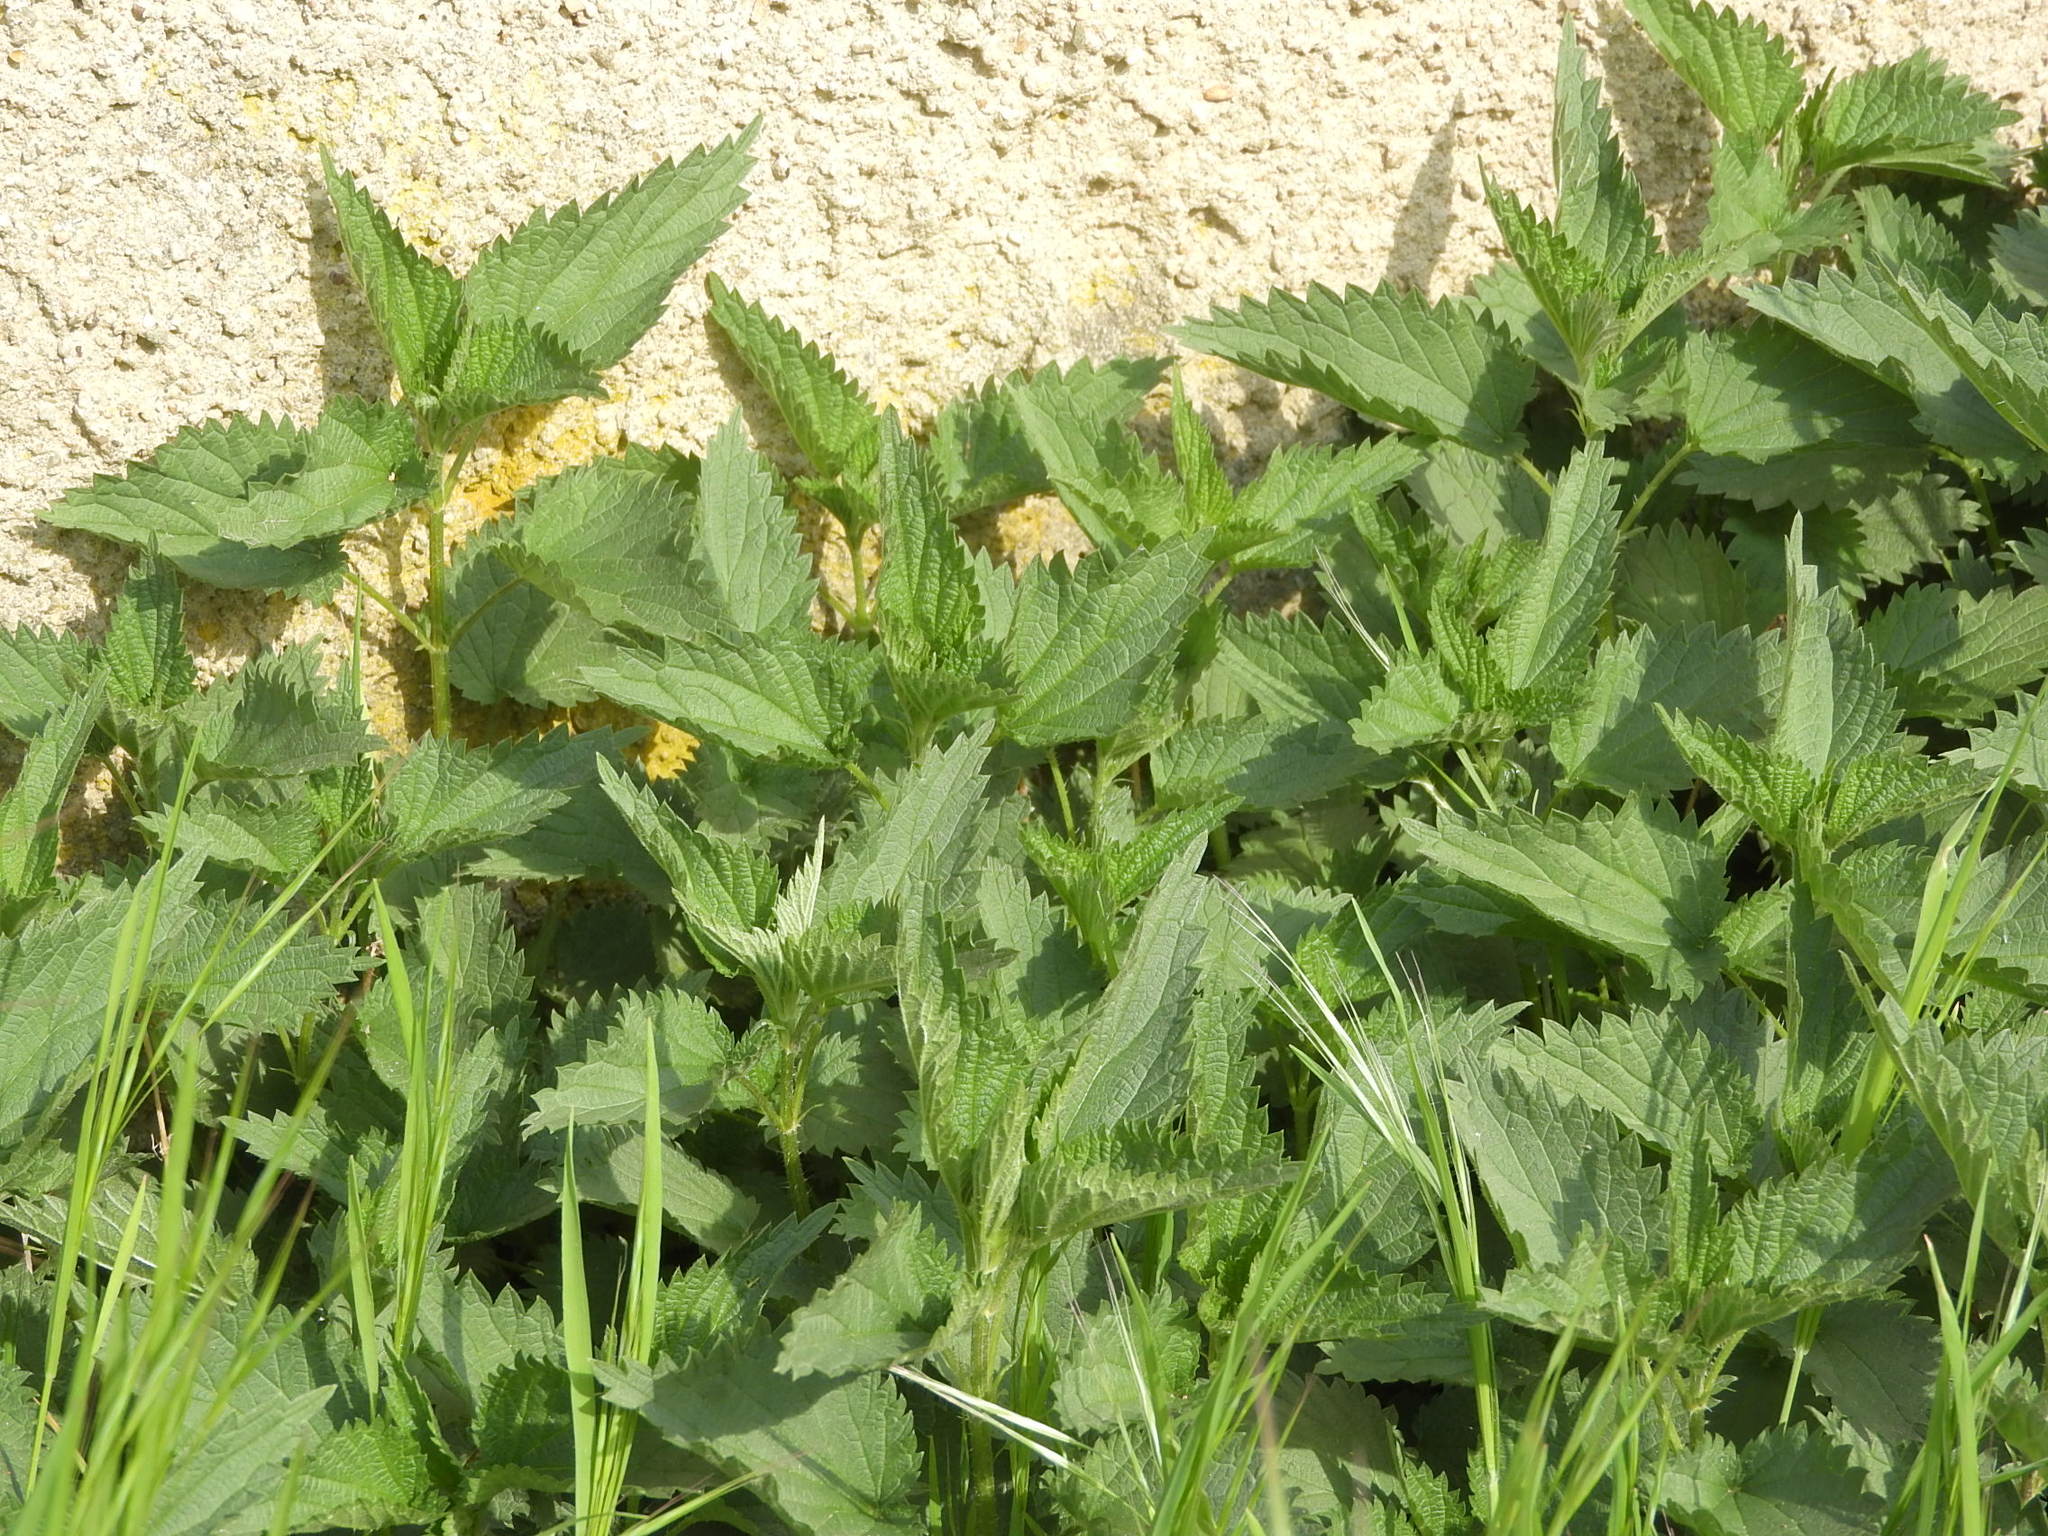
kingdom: Plantae
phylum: Tracheophyta
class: Magnoliopsida
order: Rosales
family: Urticaceae
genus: Urtica
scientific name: Urtica dioica
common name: Common nettle
